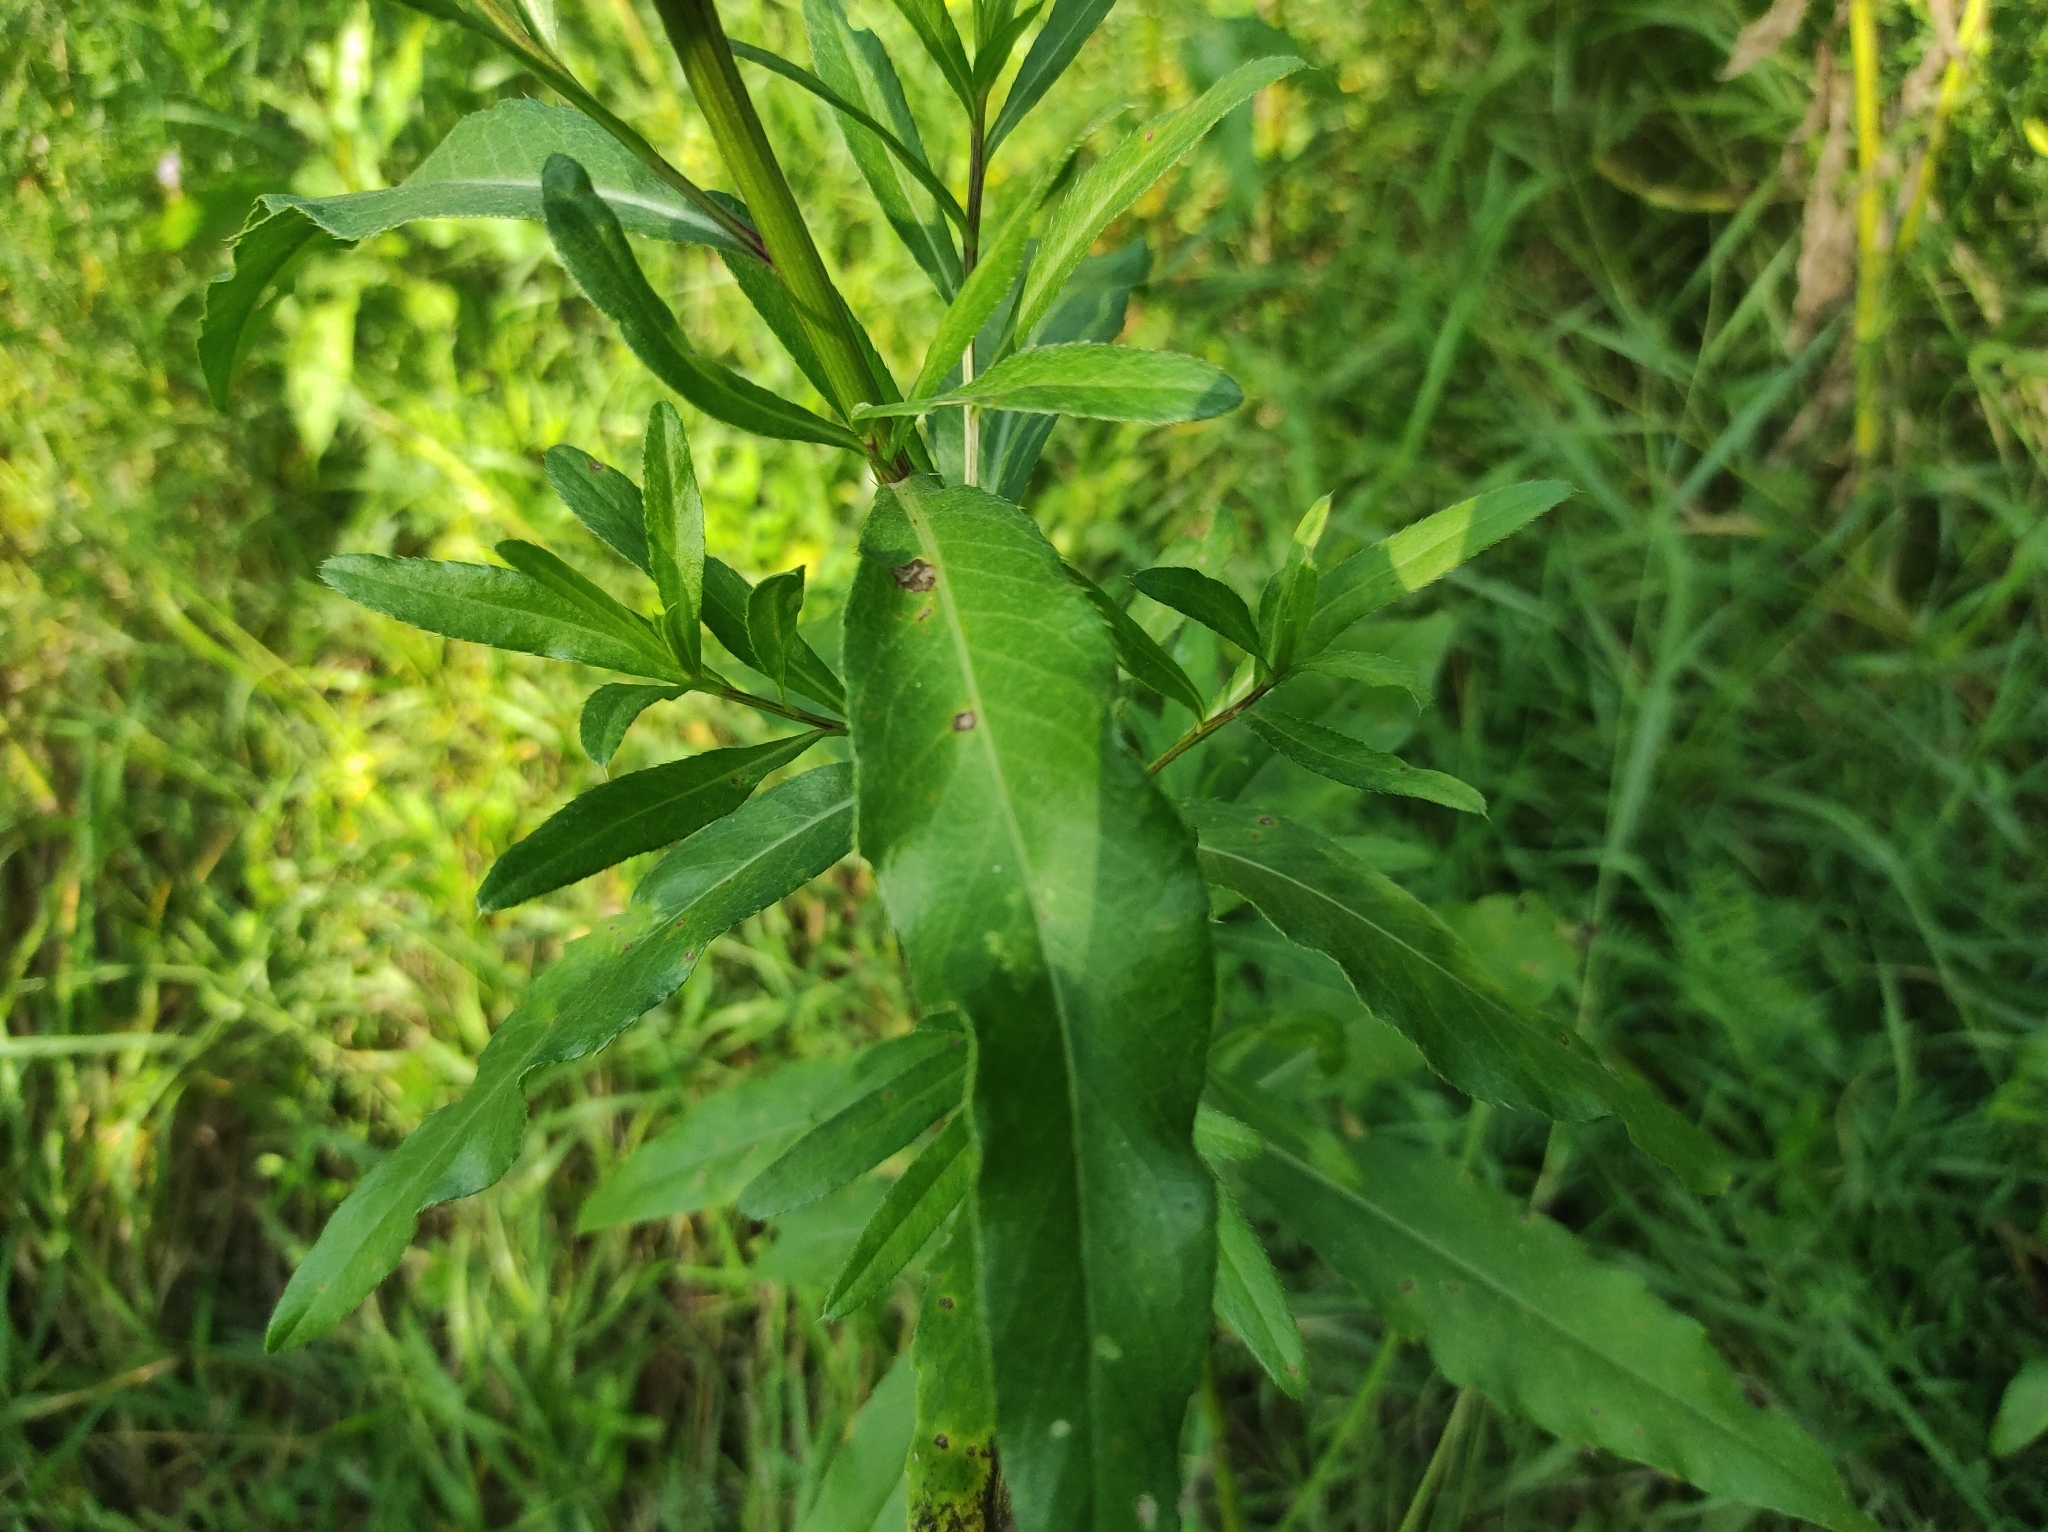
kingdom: Plantae
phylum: Tracheophyta
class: Magnoliopsida
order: Asterales
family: Asteraceae
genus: Cirsium
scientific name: Cirsium arvense
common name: Creeping thistle
